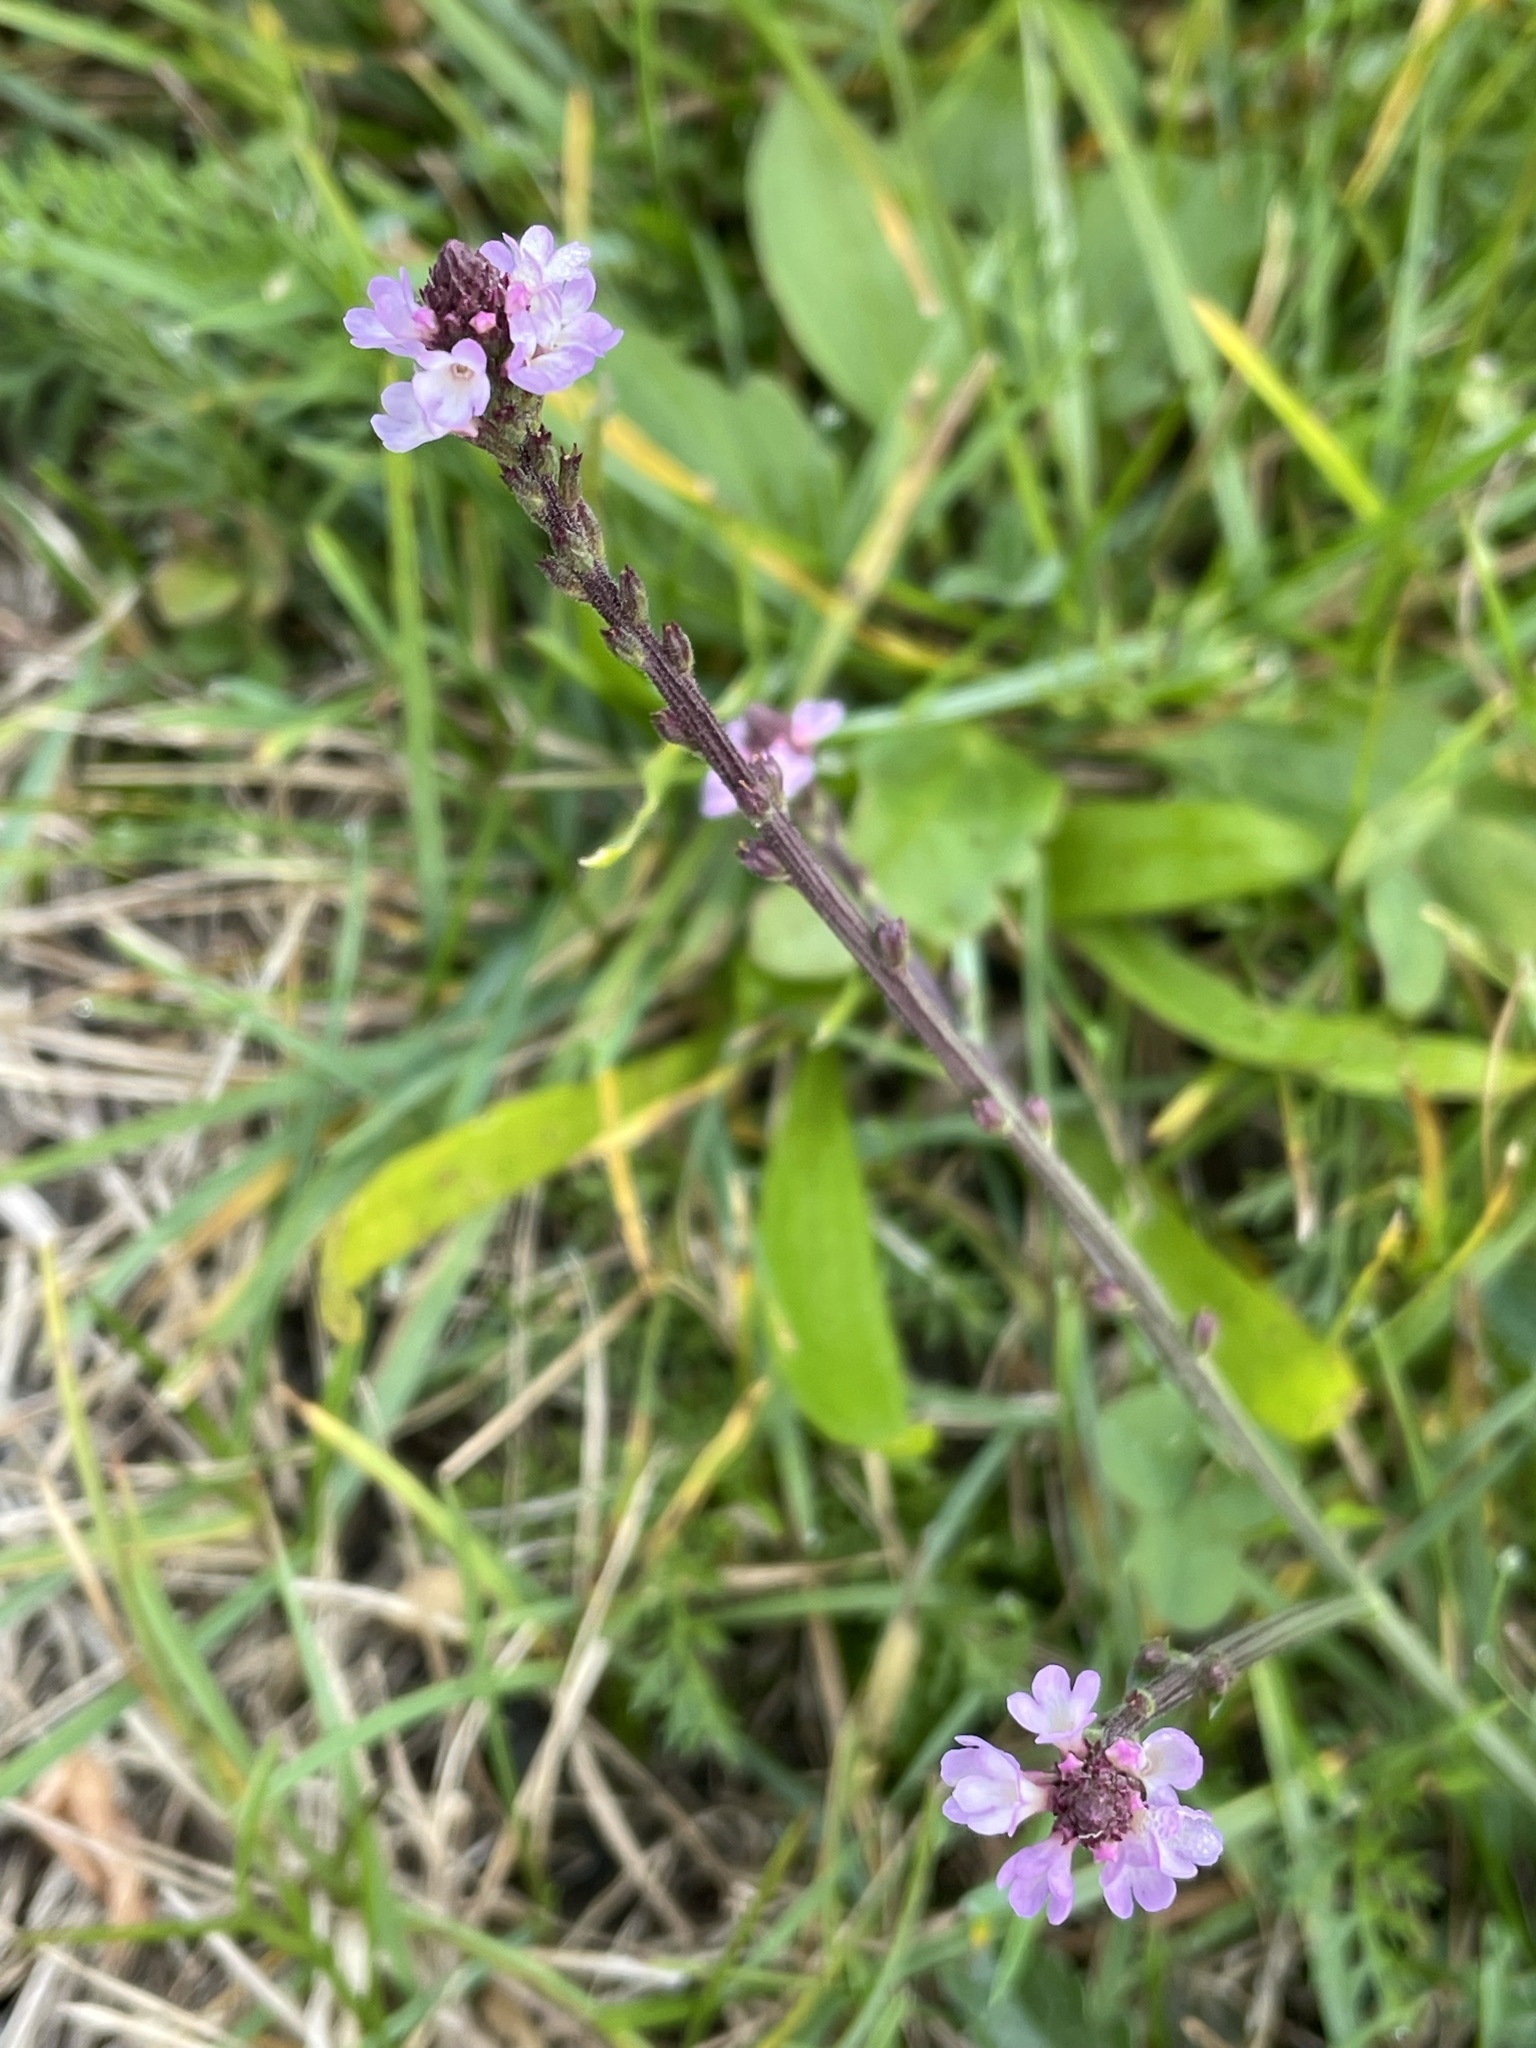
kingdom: Plantae
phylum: Tracheophyta
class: Magnoliopsida
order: Lamiales
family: Verbenaceae
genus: Verbena
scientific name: Verbena officinalis
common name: Vervain
